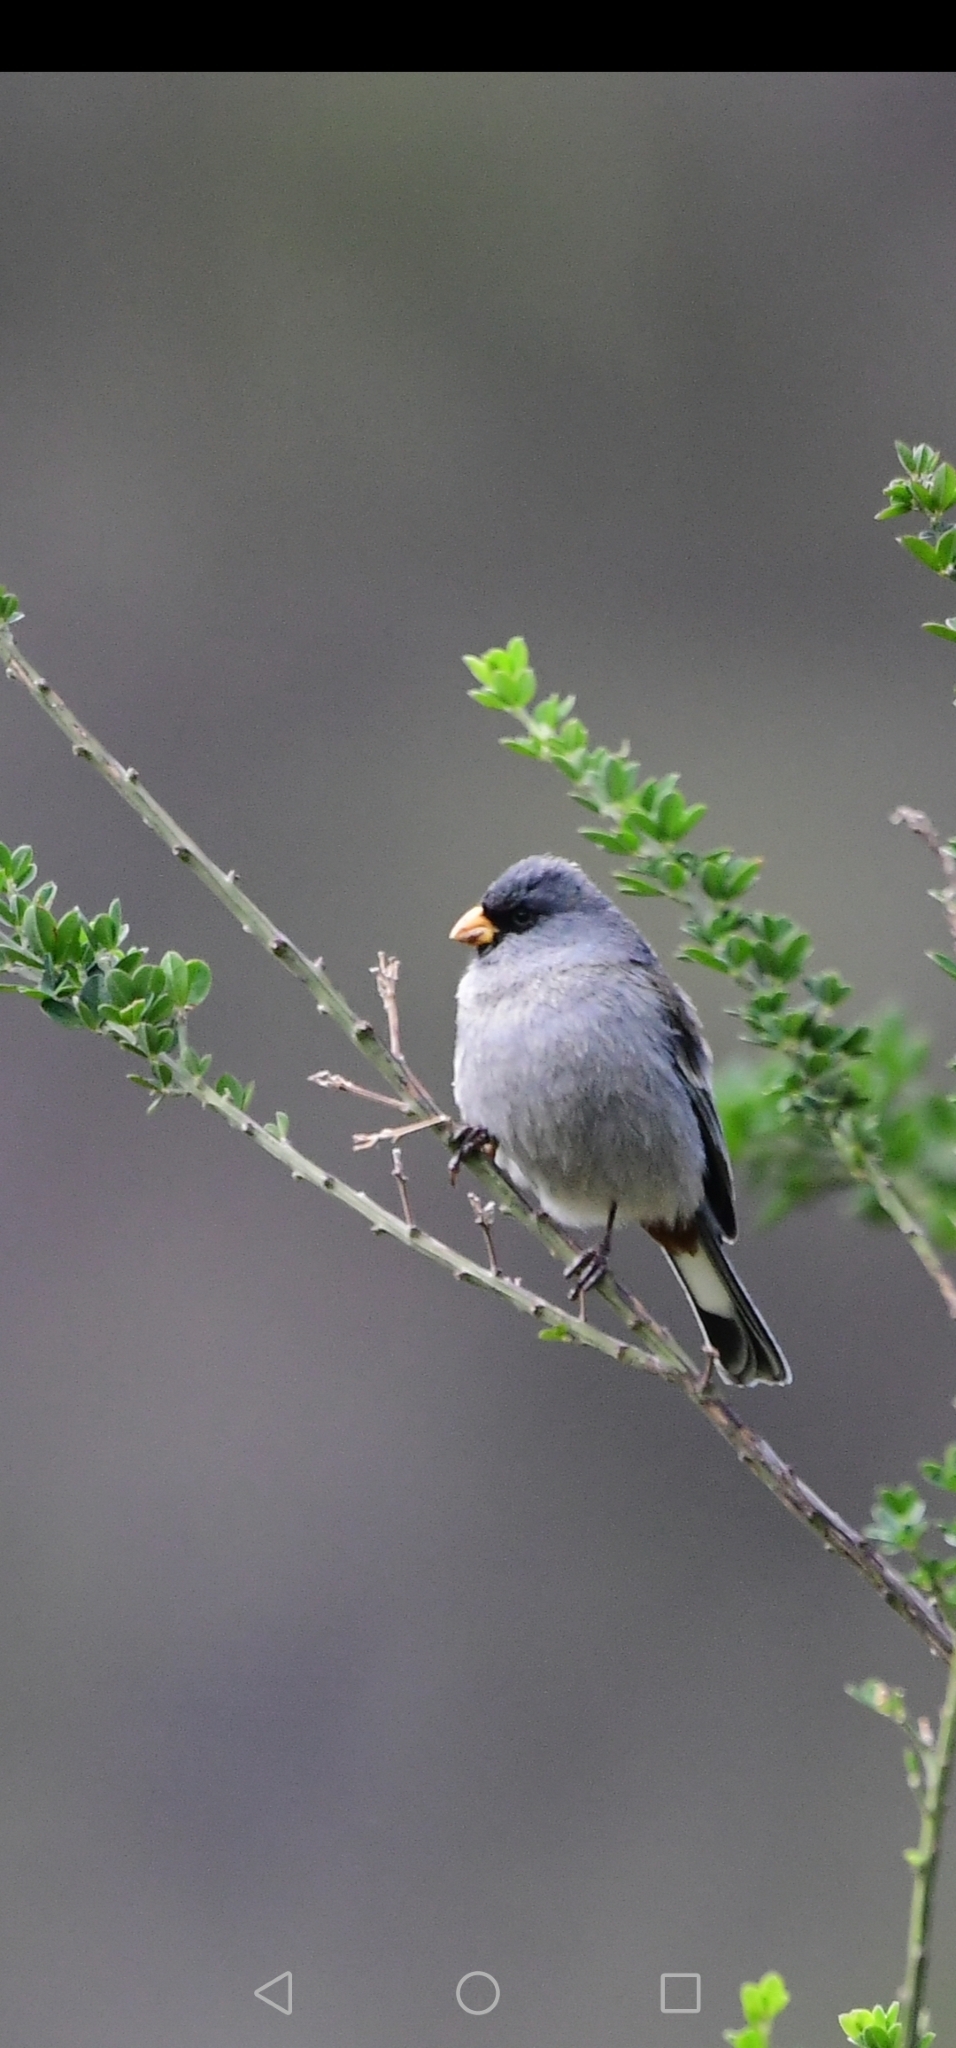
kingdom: Animalia
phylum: Chordata
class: Aves
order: Passeriformes
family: Thraupidae
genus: Catamenia
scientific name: Catamenia analis
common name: Band-tailed seedeater
